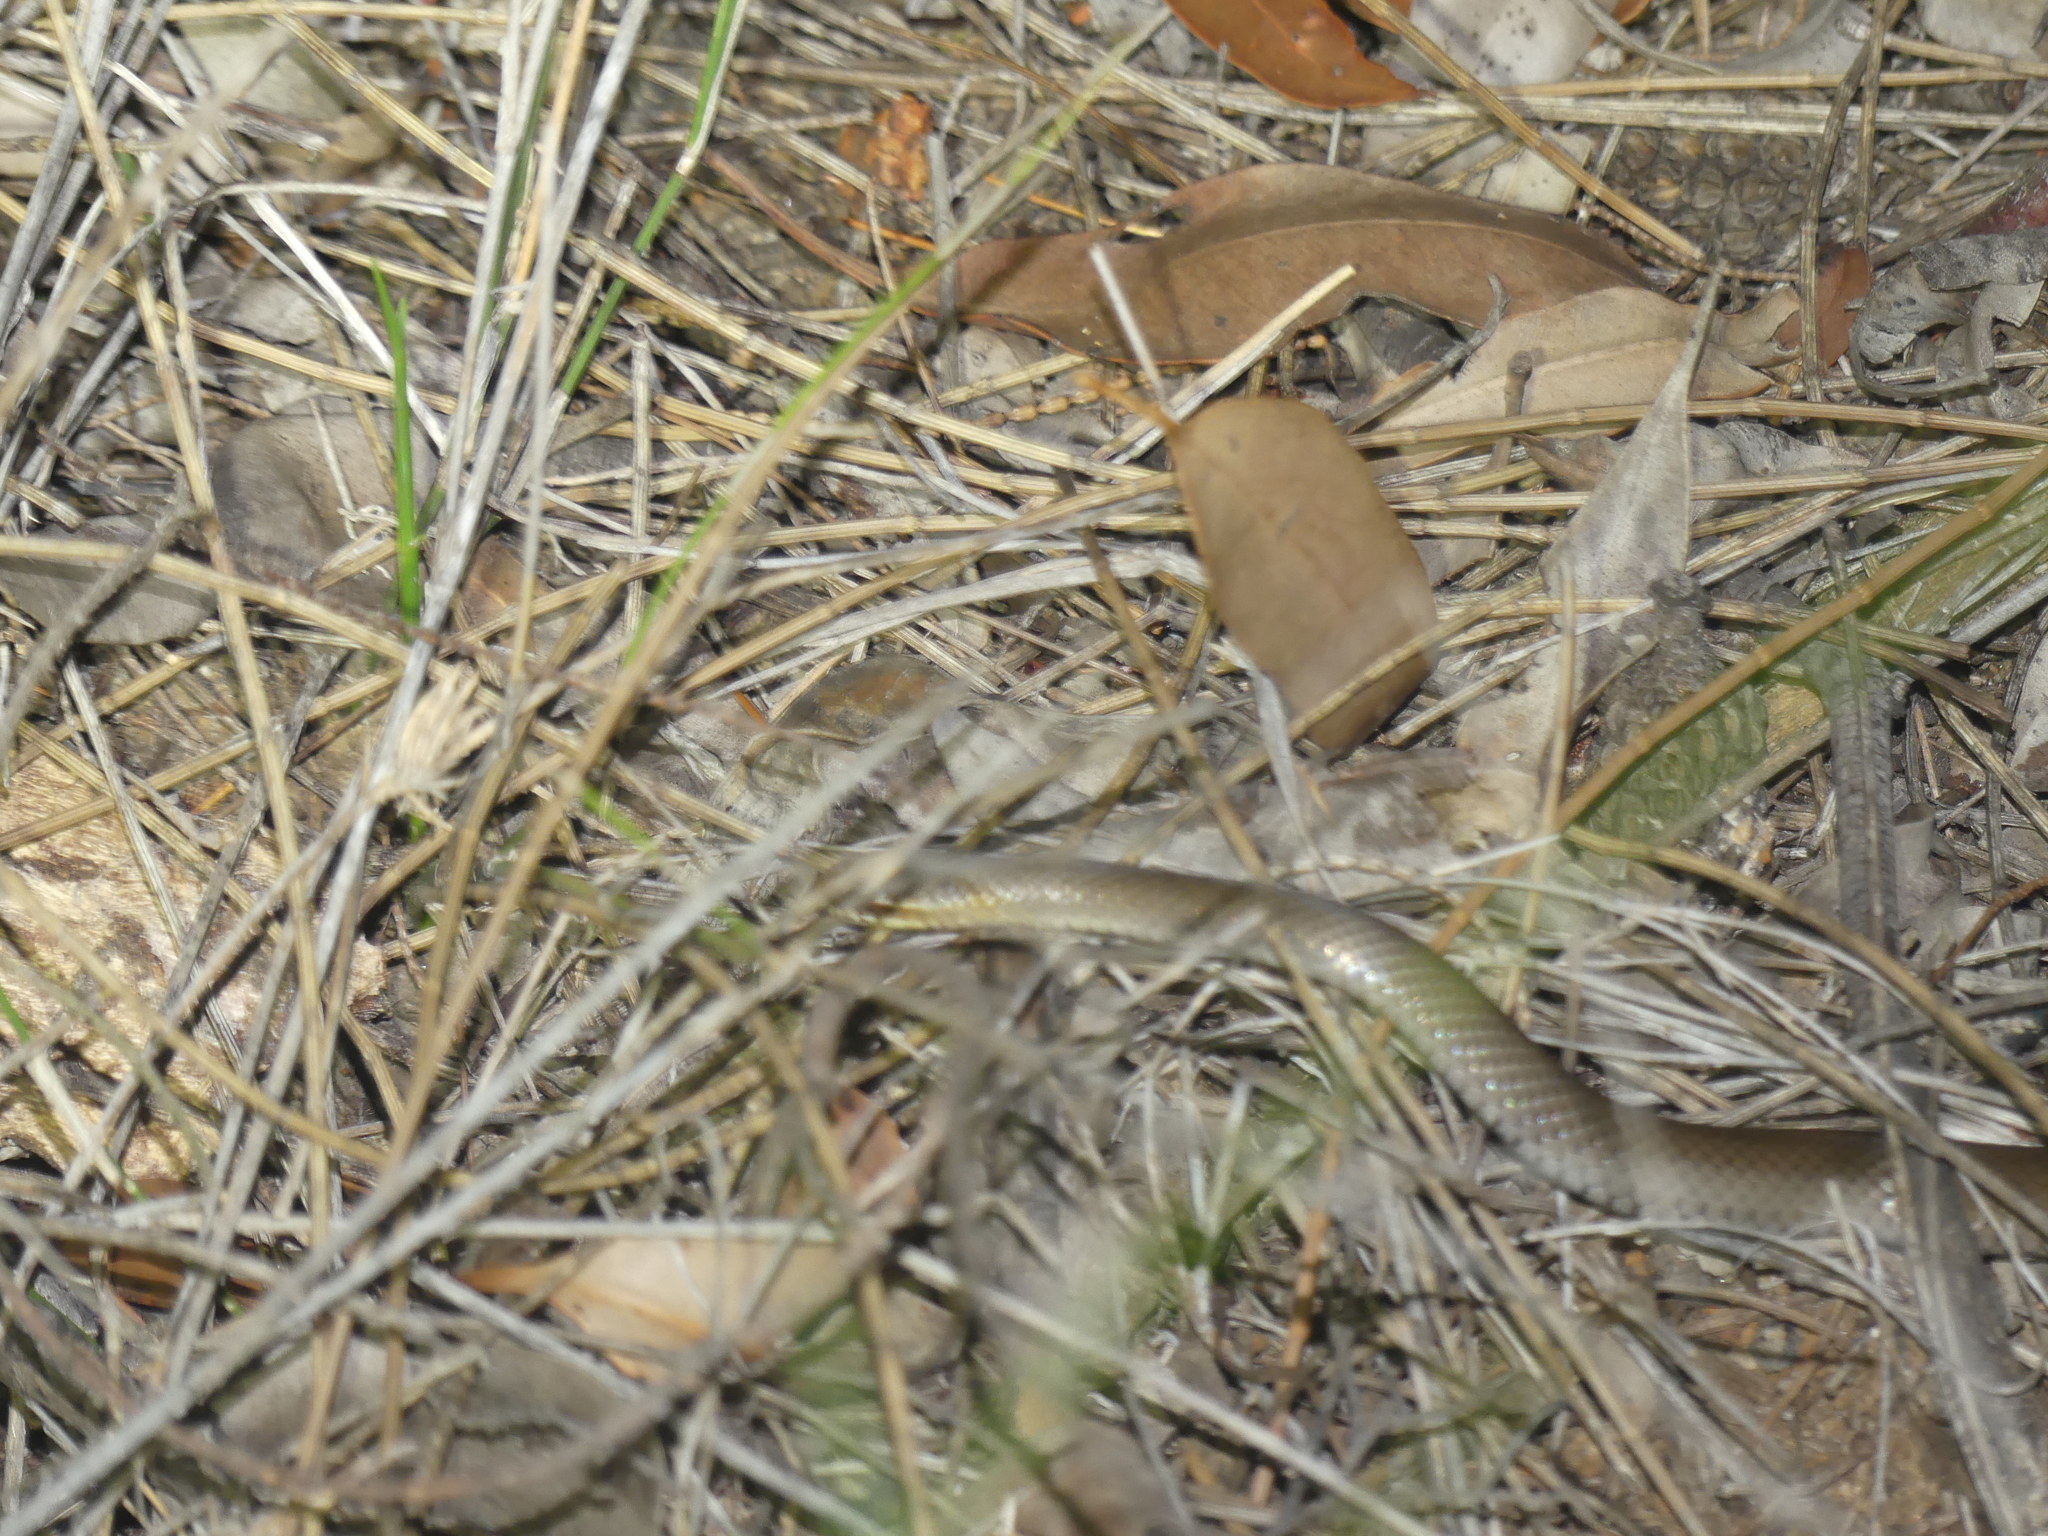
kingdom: Animalia
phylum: Chordata
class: Squamata
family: Elapidae
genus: Hemiaspis
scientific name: Hemiaspis signata
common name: Black-bellied swamp snake
